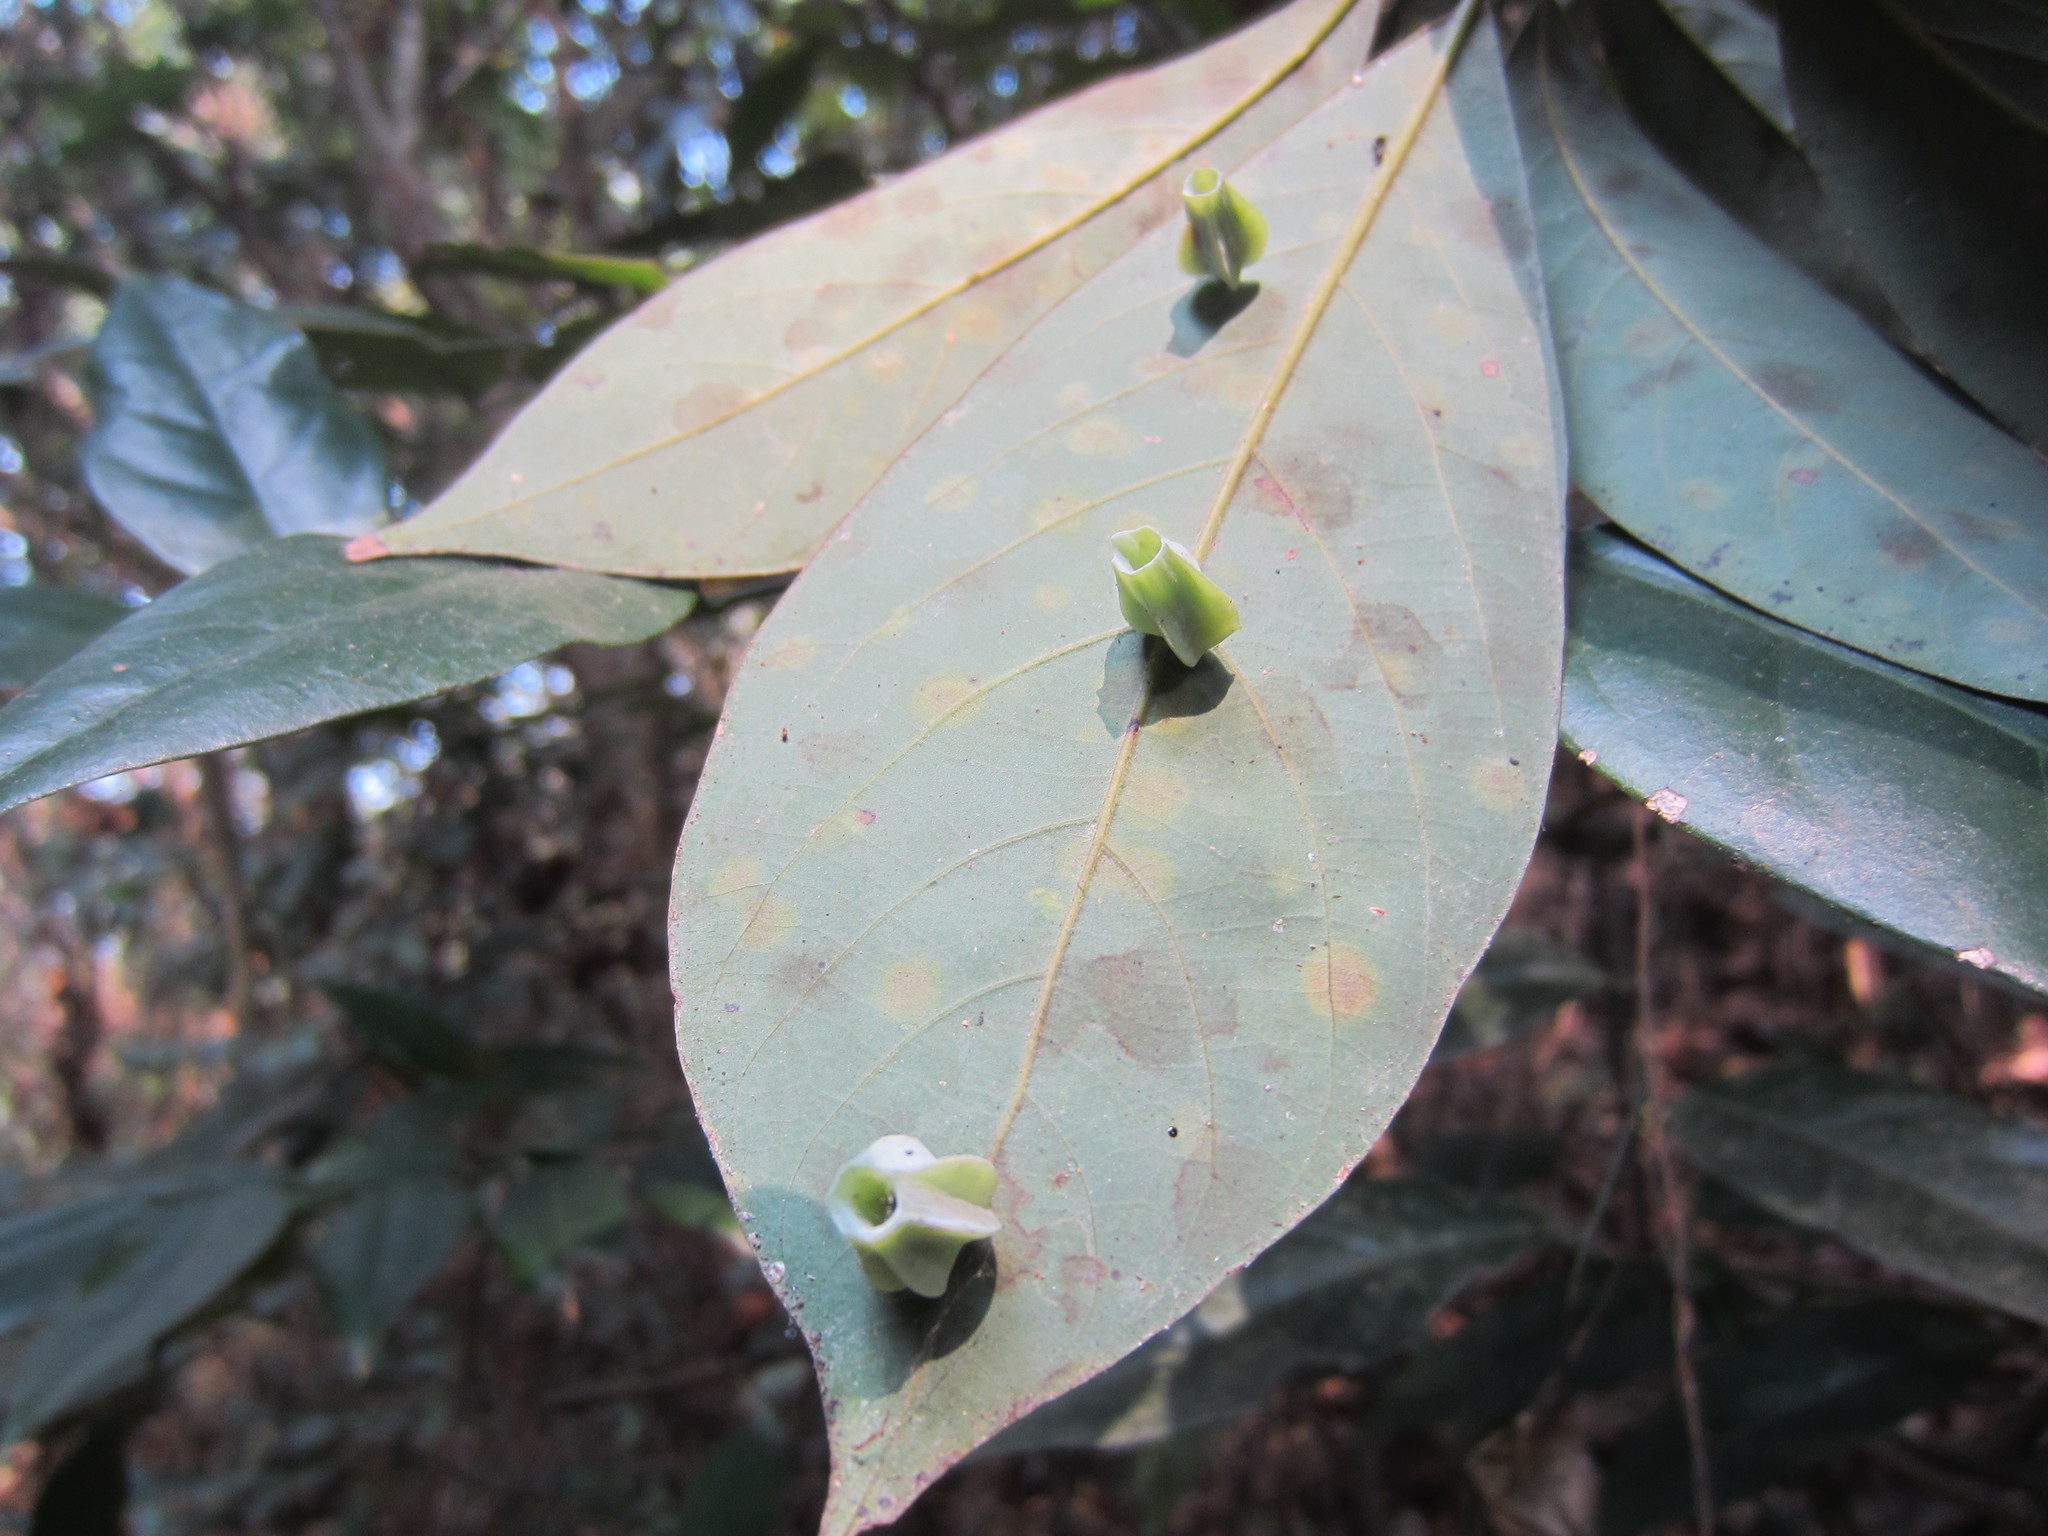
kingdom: Animalia
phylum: Arthropoda
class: Insecta
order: Diptera
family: Cecidomyiidae
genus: Daphnephila
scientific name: Daphnephila urnicola
